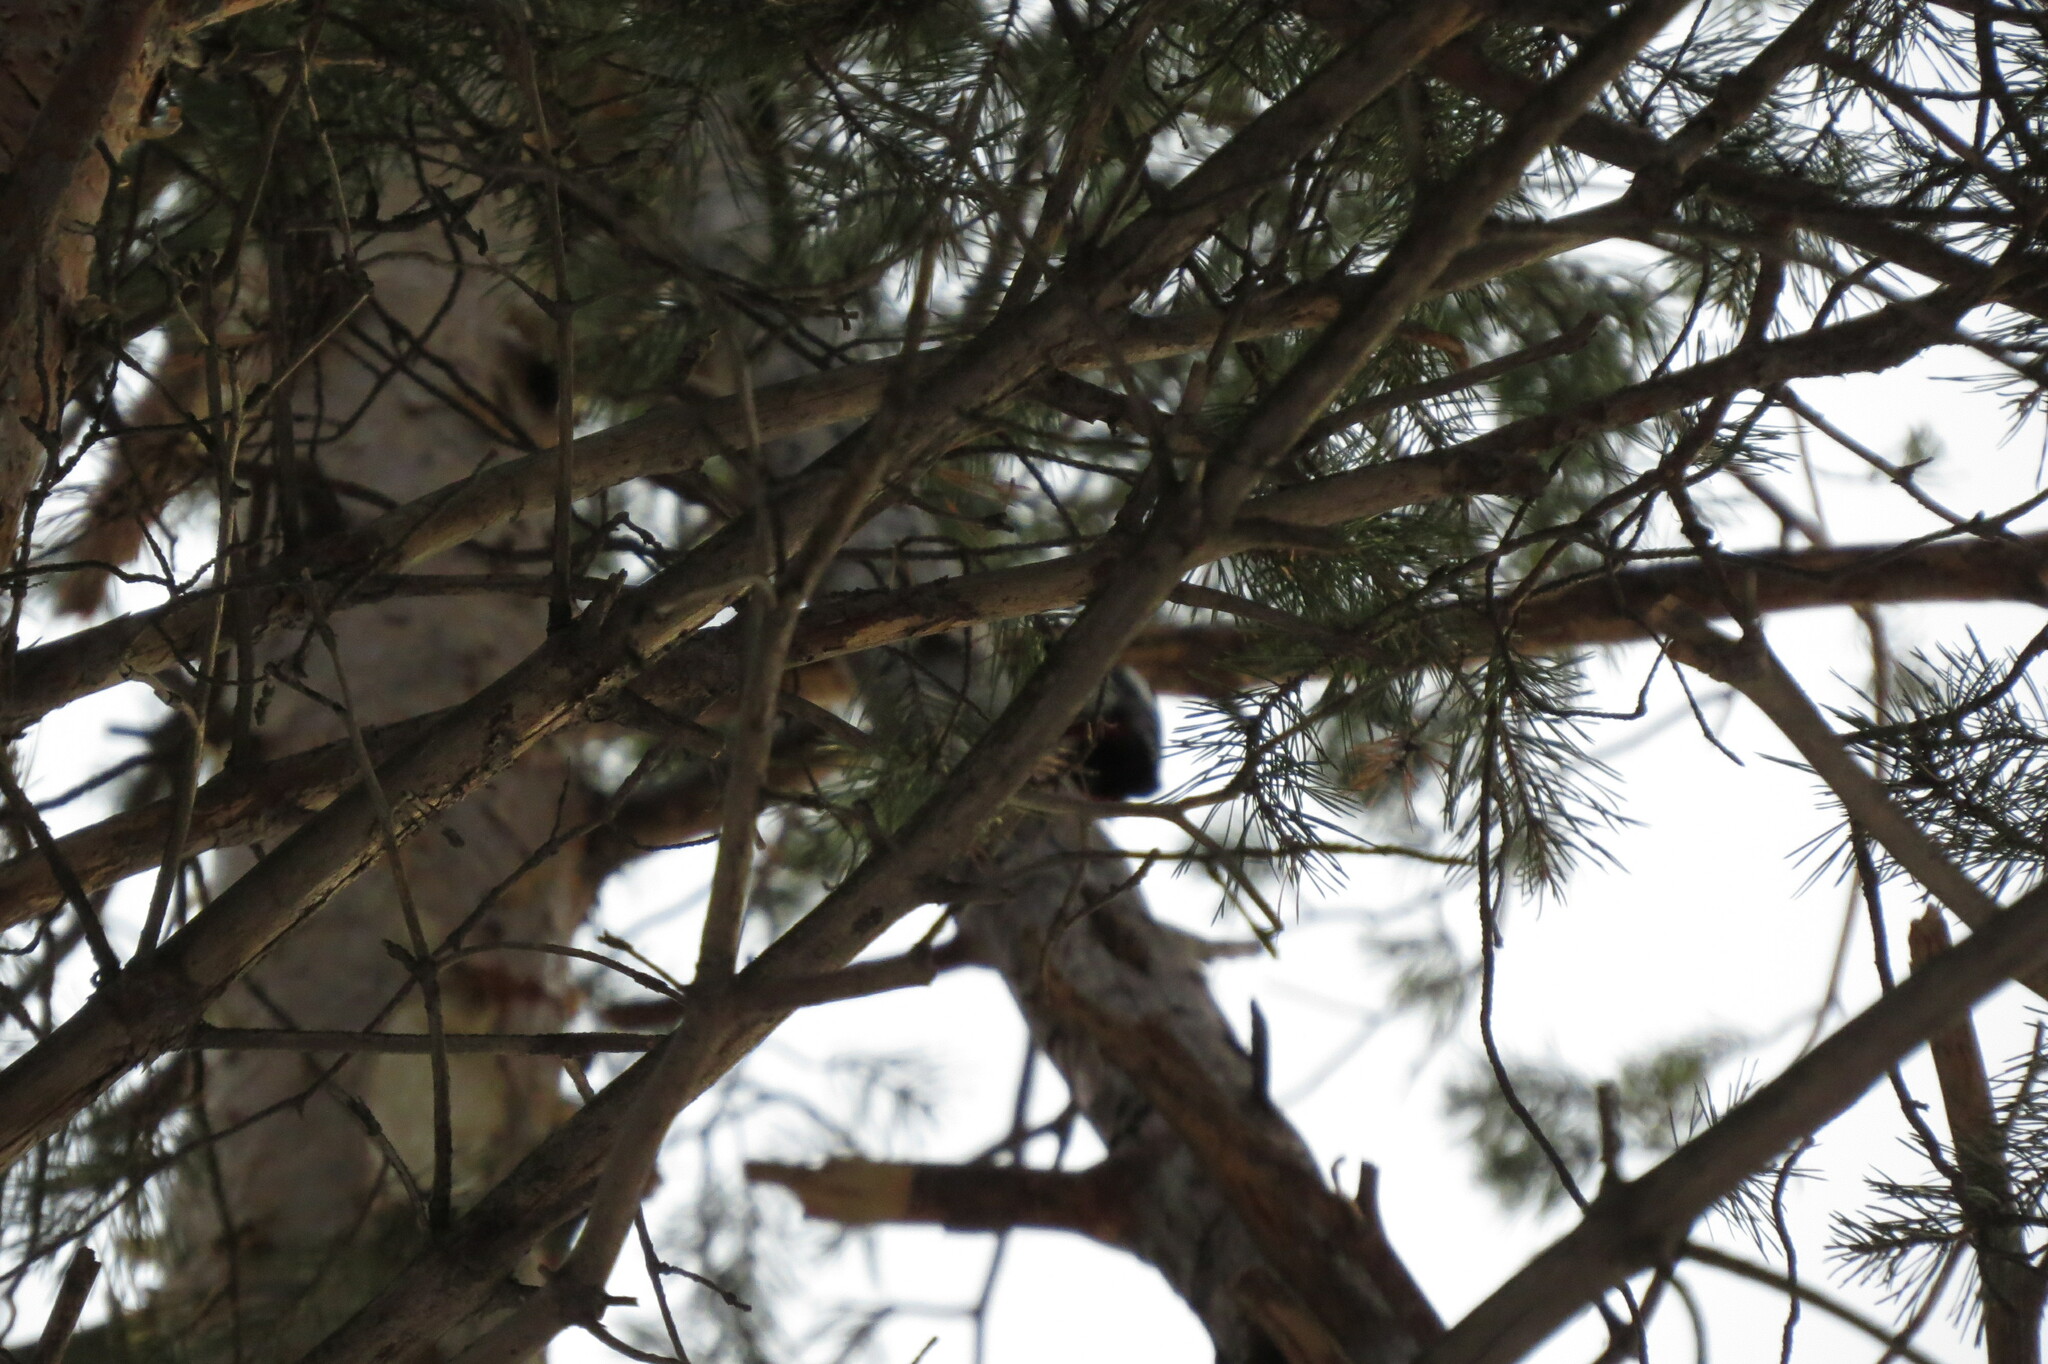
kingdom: Animalia
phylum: Chordata
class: Aves
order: Piciformes
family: Picidae
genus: Dendrocopos
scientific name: Dendrocopos major
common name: Great spotted woodpecker
